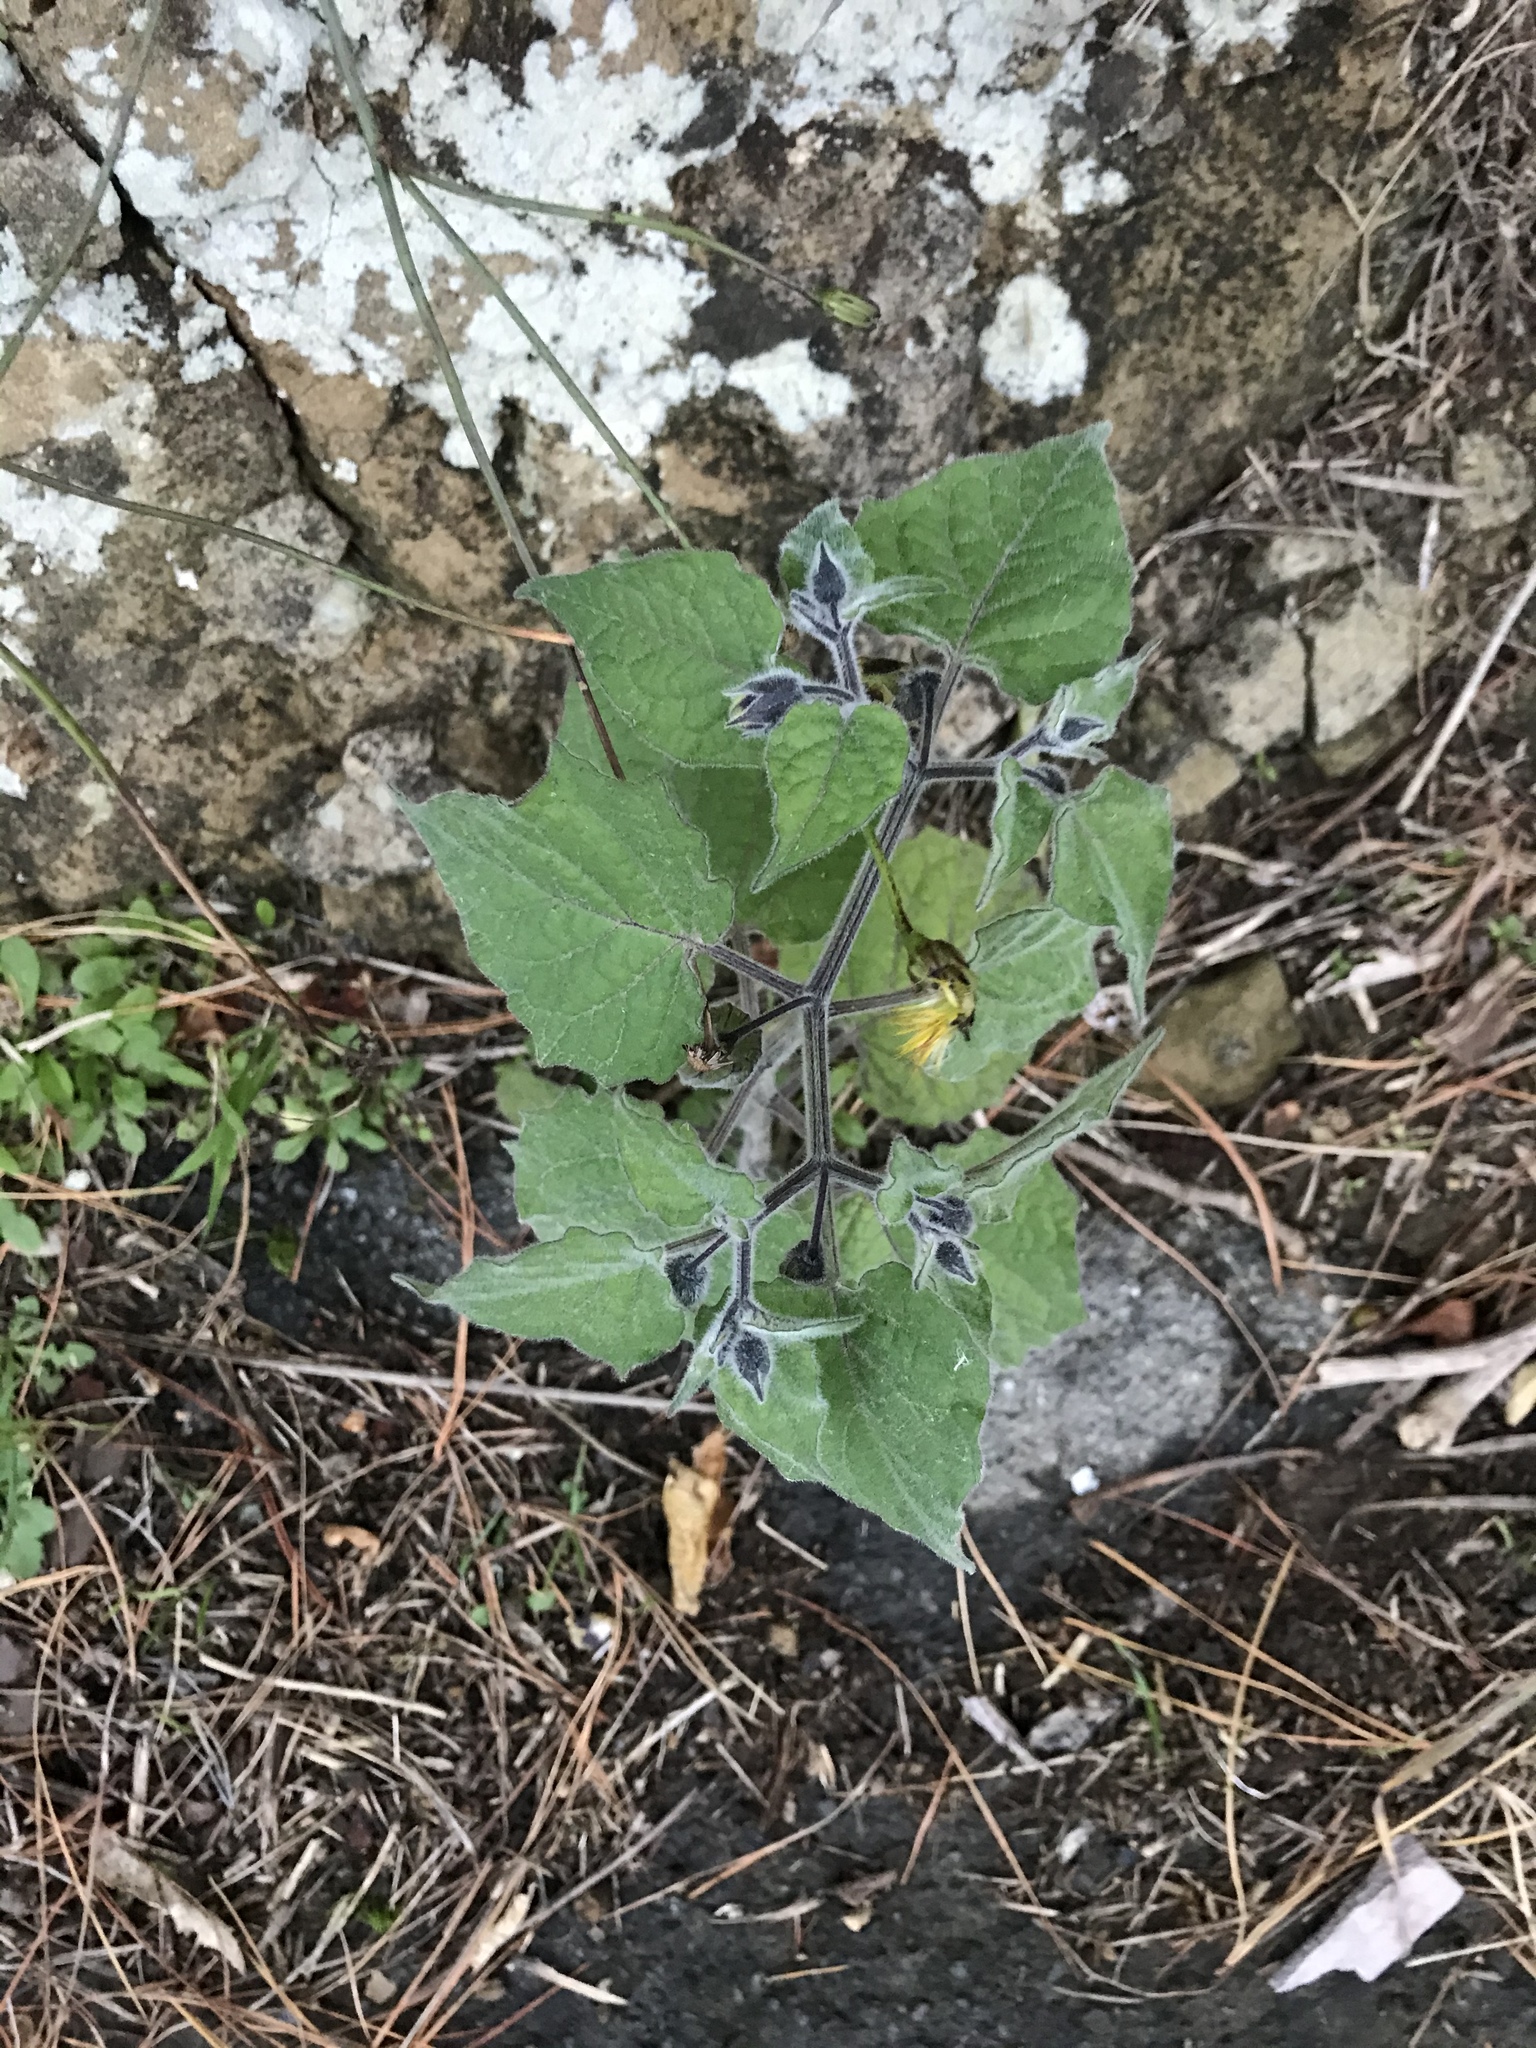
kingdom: Plantae
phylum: Tracheophyta
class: Magnoliopsida
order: Solanales
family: Solanaceae
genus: Physalis
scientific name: Physalis peruviana
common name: Cape-gooseberry
